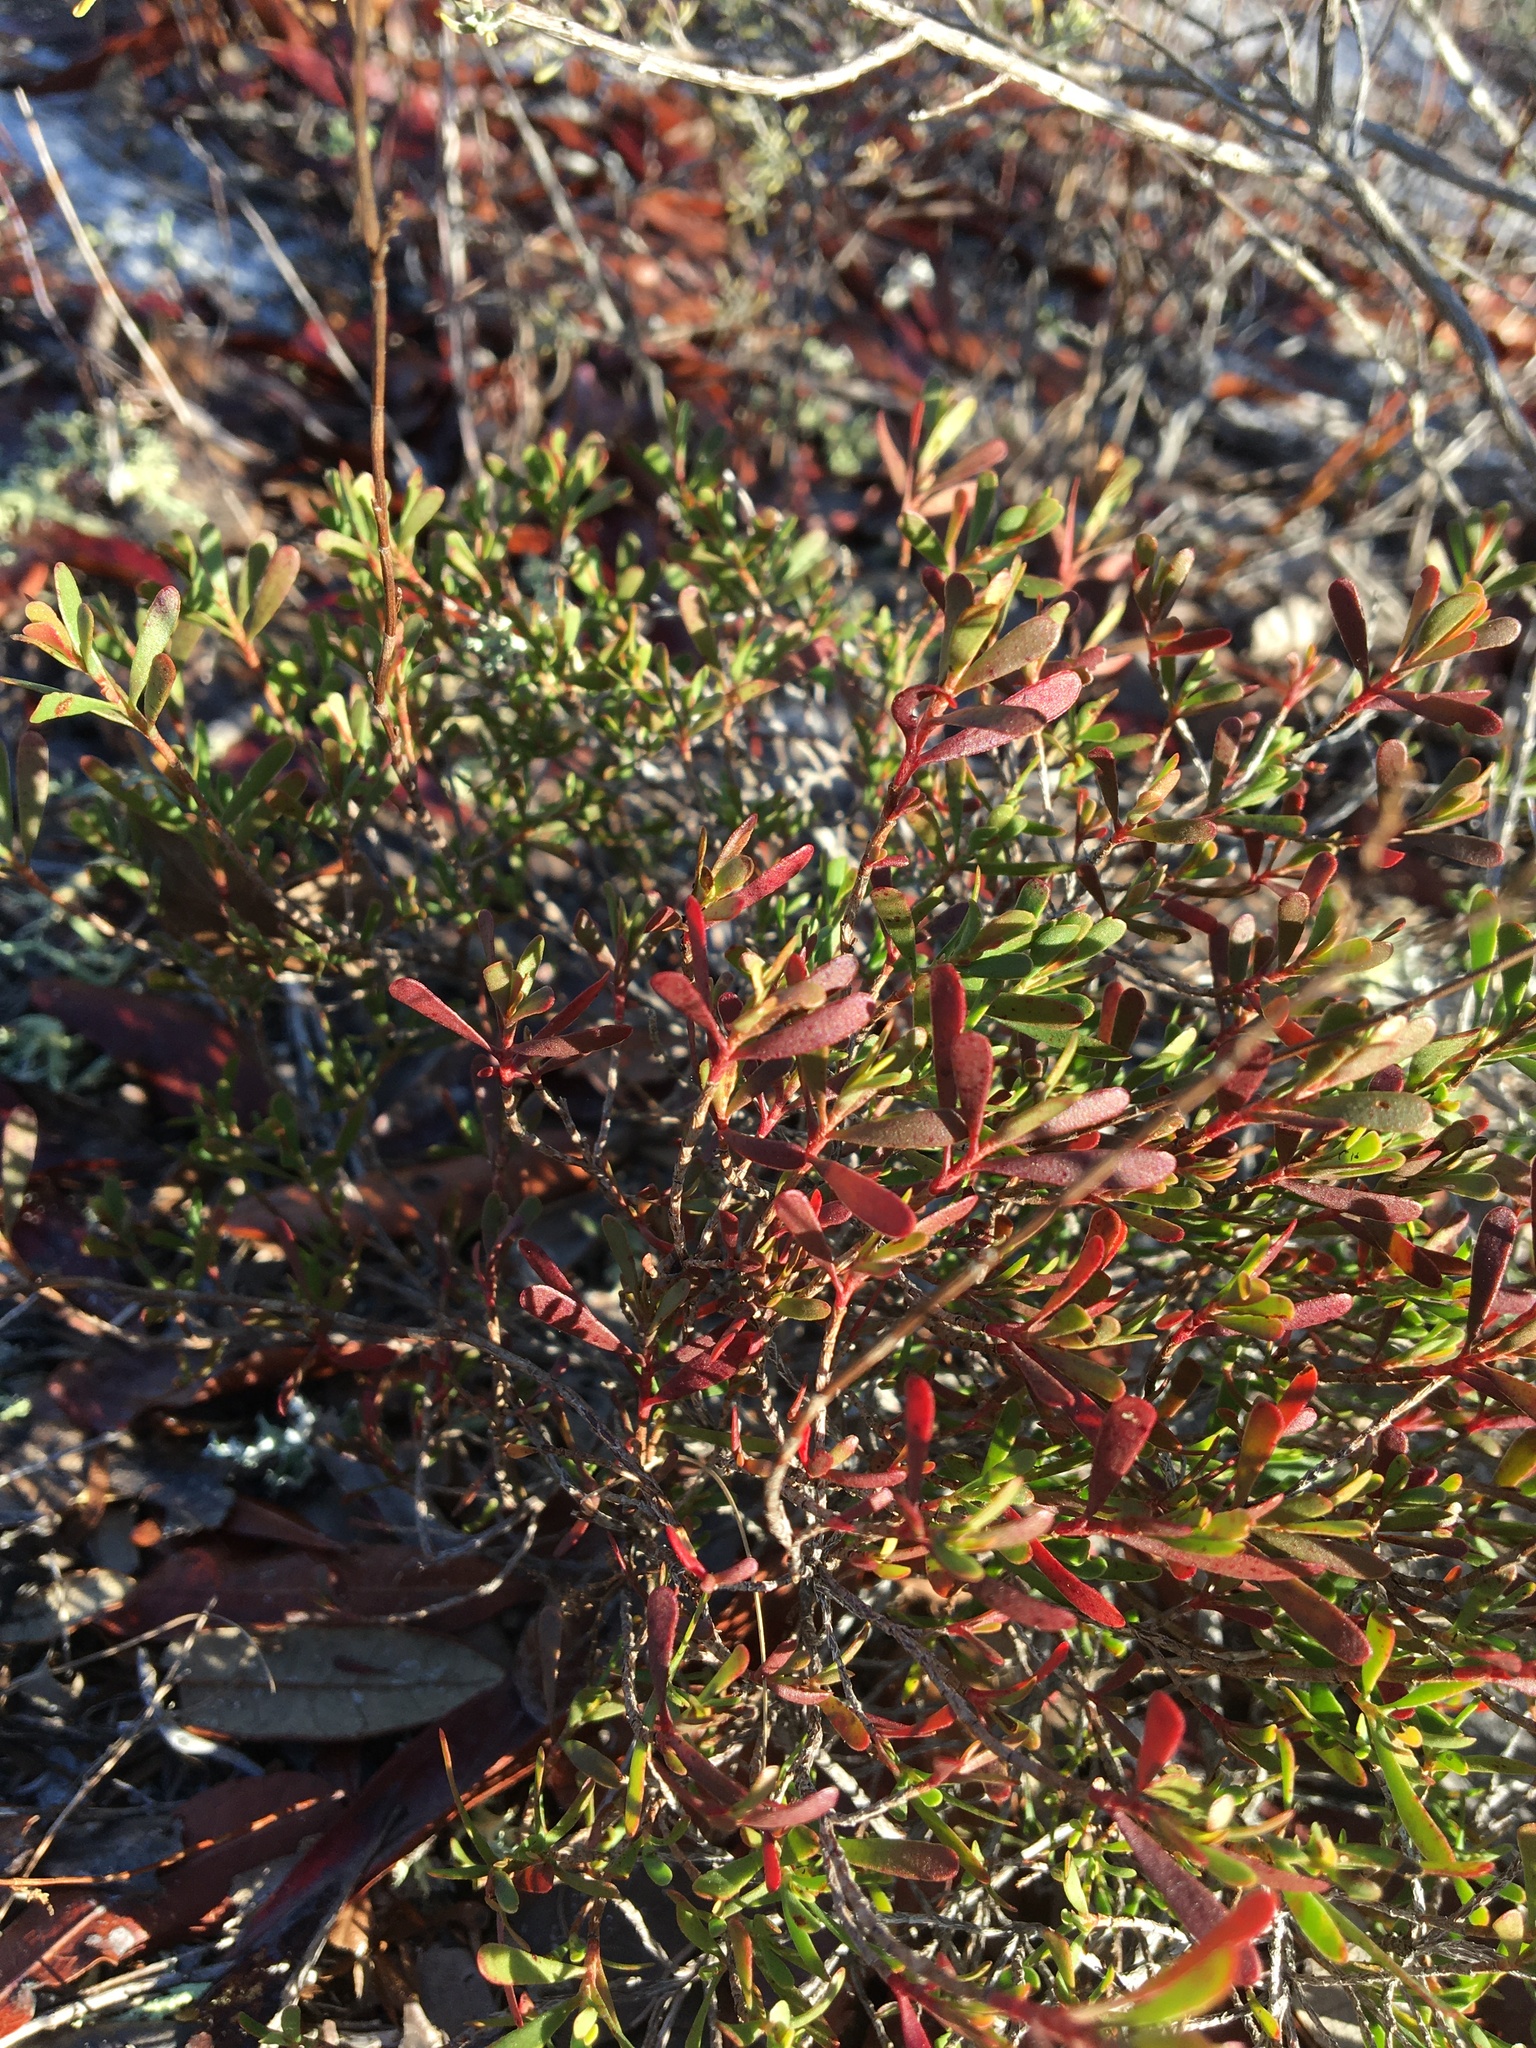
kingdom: Plantae
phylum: Tracheophyta
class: Magnoliopsida
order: Caryophyllales
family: Polygonaceae
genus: Polygonella
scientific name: Polygonella polygama
